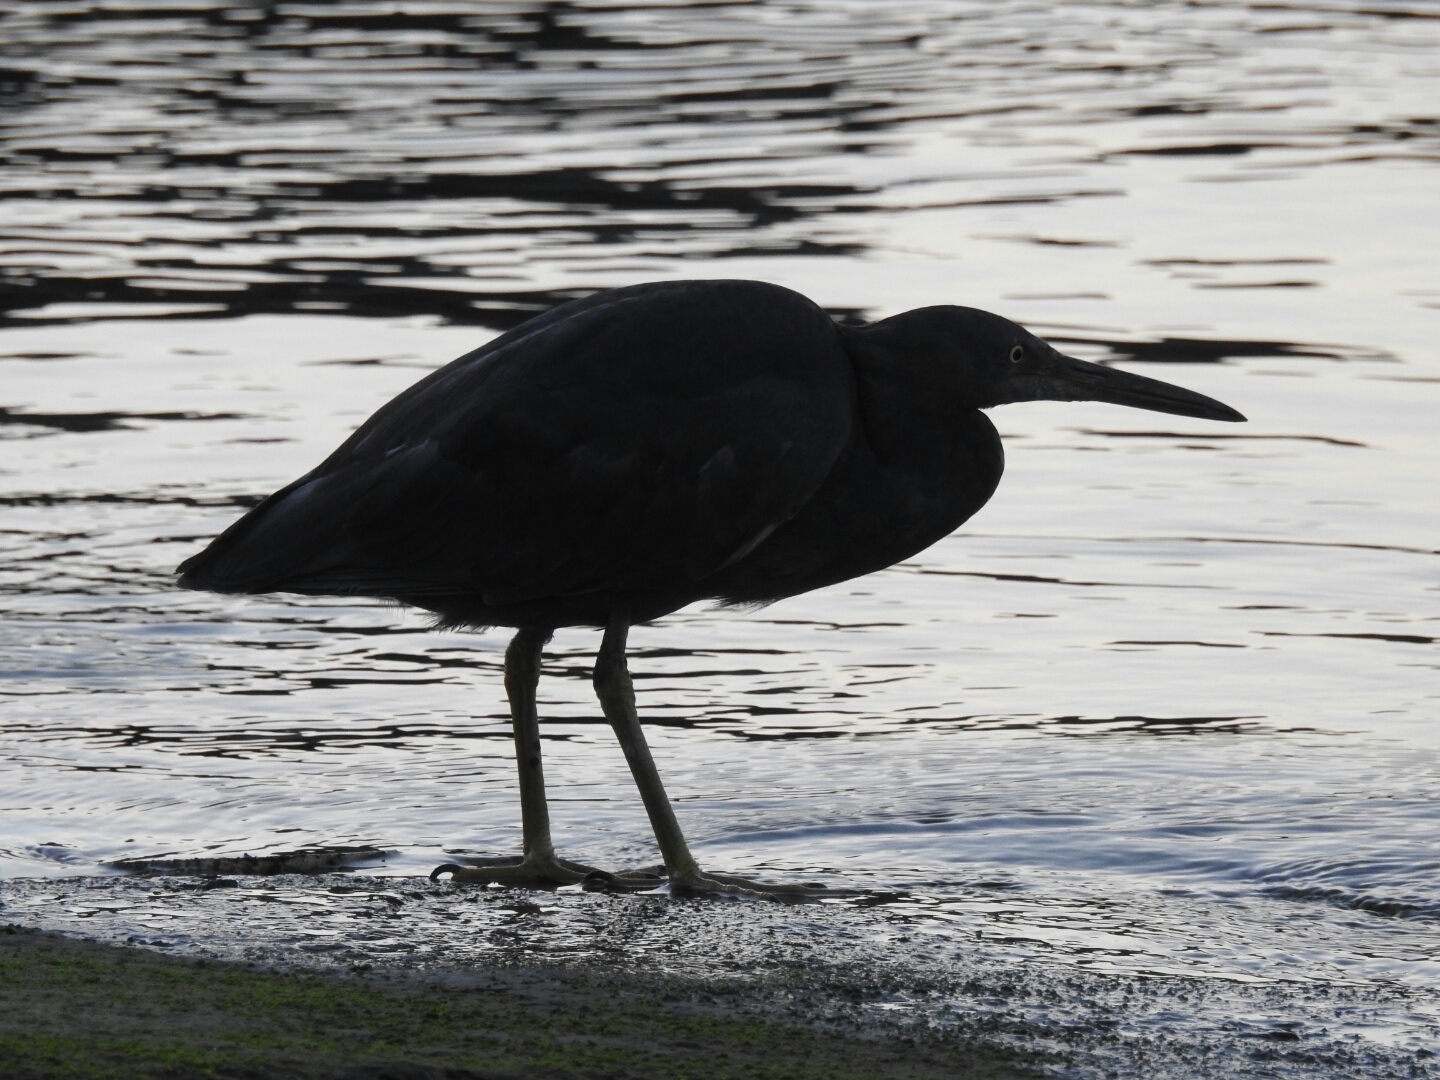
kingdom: Animalia
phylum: Chordata
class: Aves
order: Pelecaniformes
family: Ardeidae
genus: Egretta
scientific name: Egretta sacra
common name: Pacific reef heron
